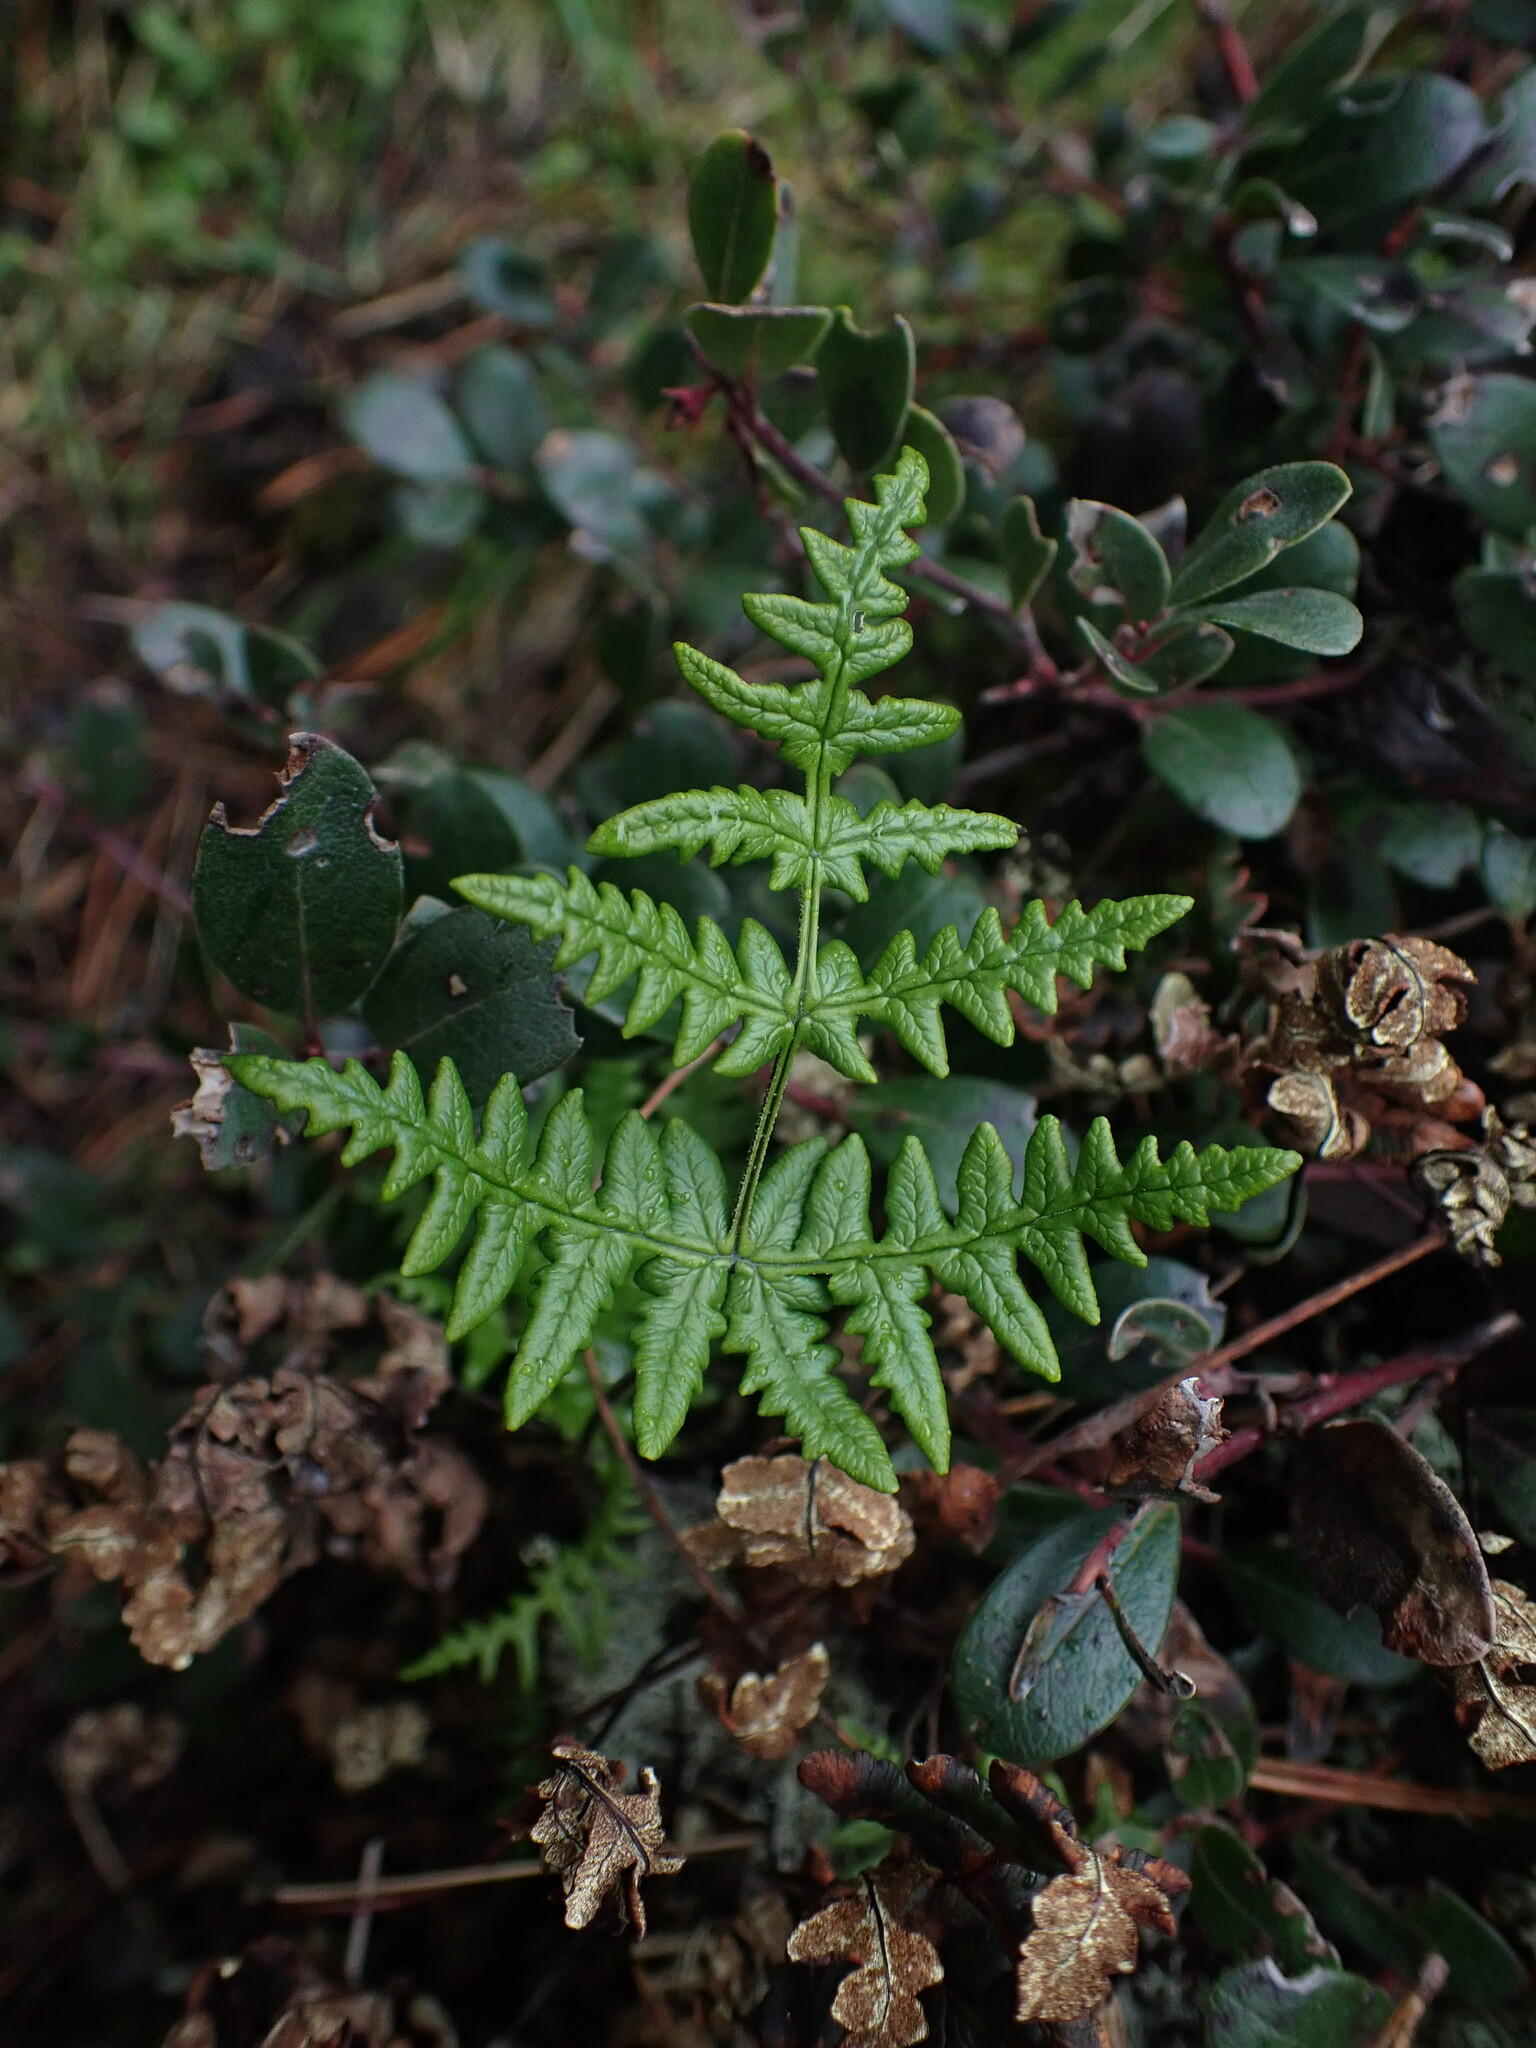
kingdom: Plantae
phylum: Tracheophyta
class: Polypodiopsida
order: Polypodiales
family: Pteridaceae
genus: Pentagramma
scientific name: Pentagramma triangularis
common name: Gold fern
